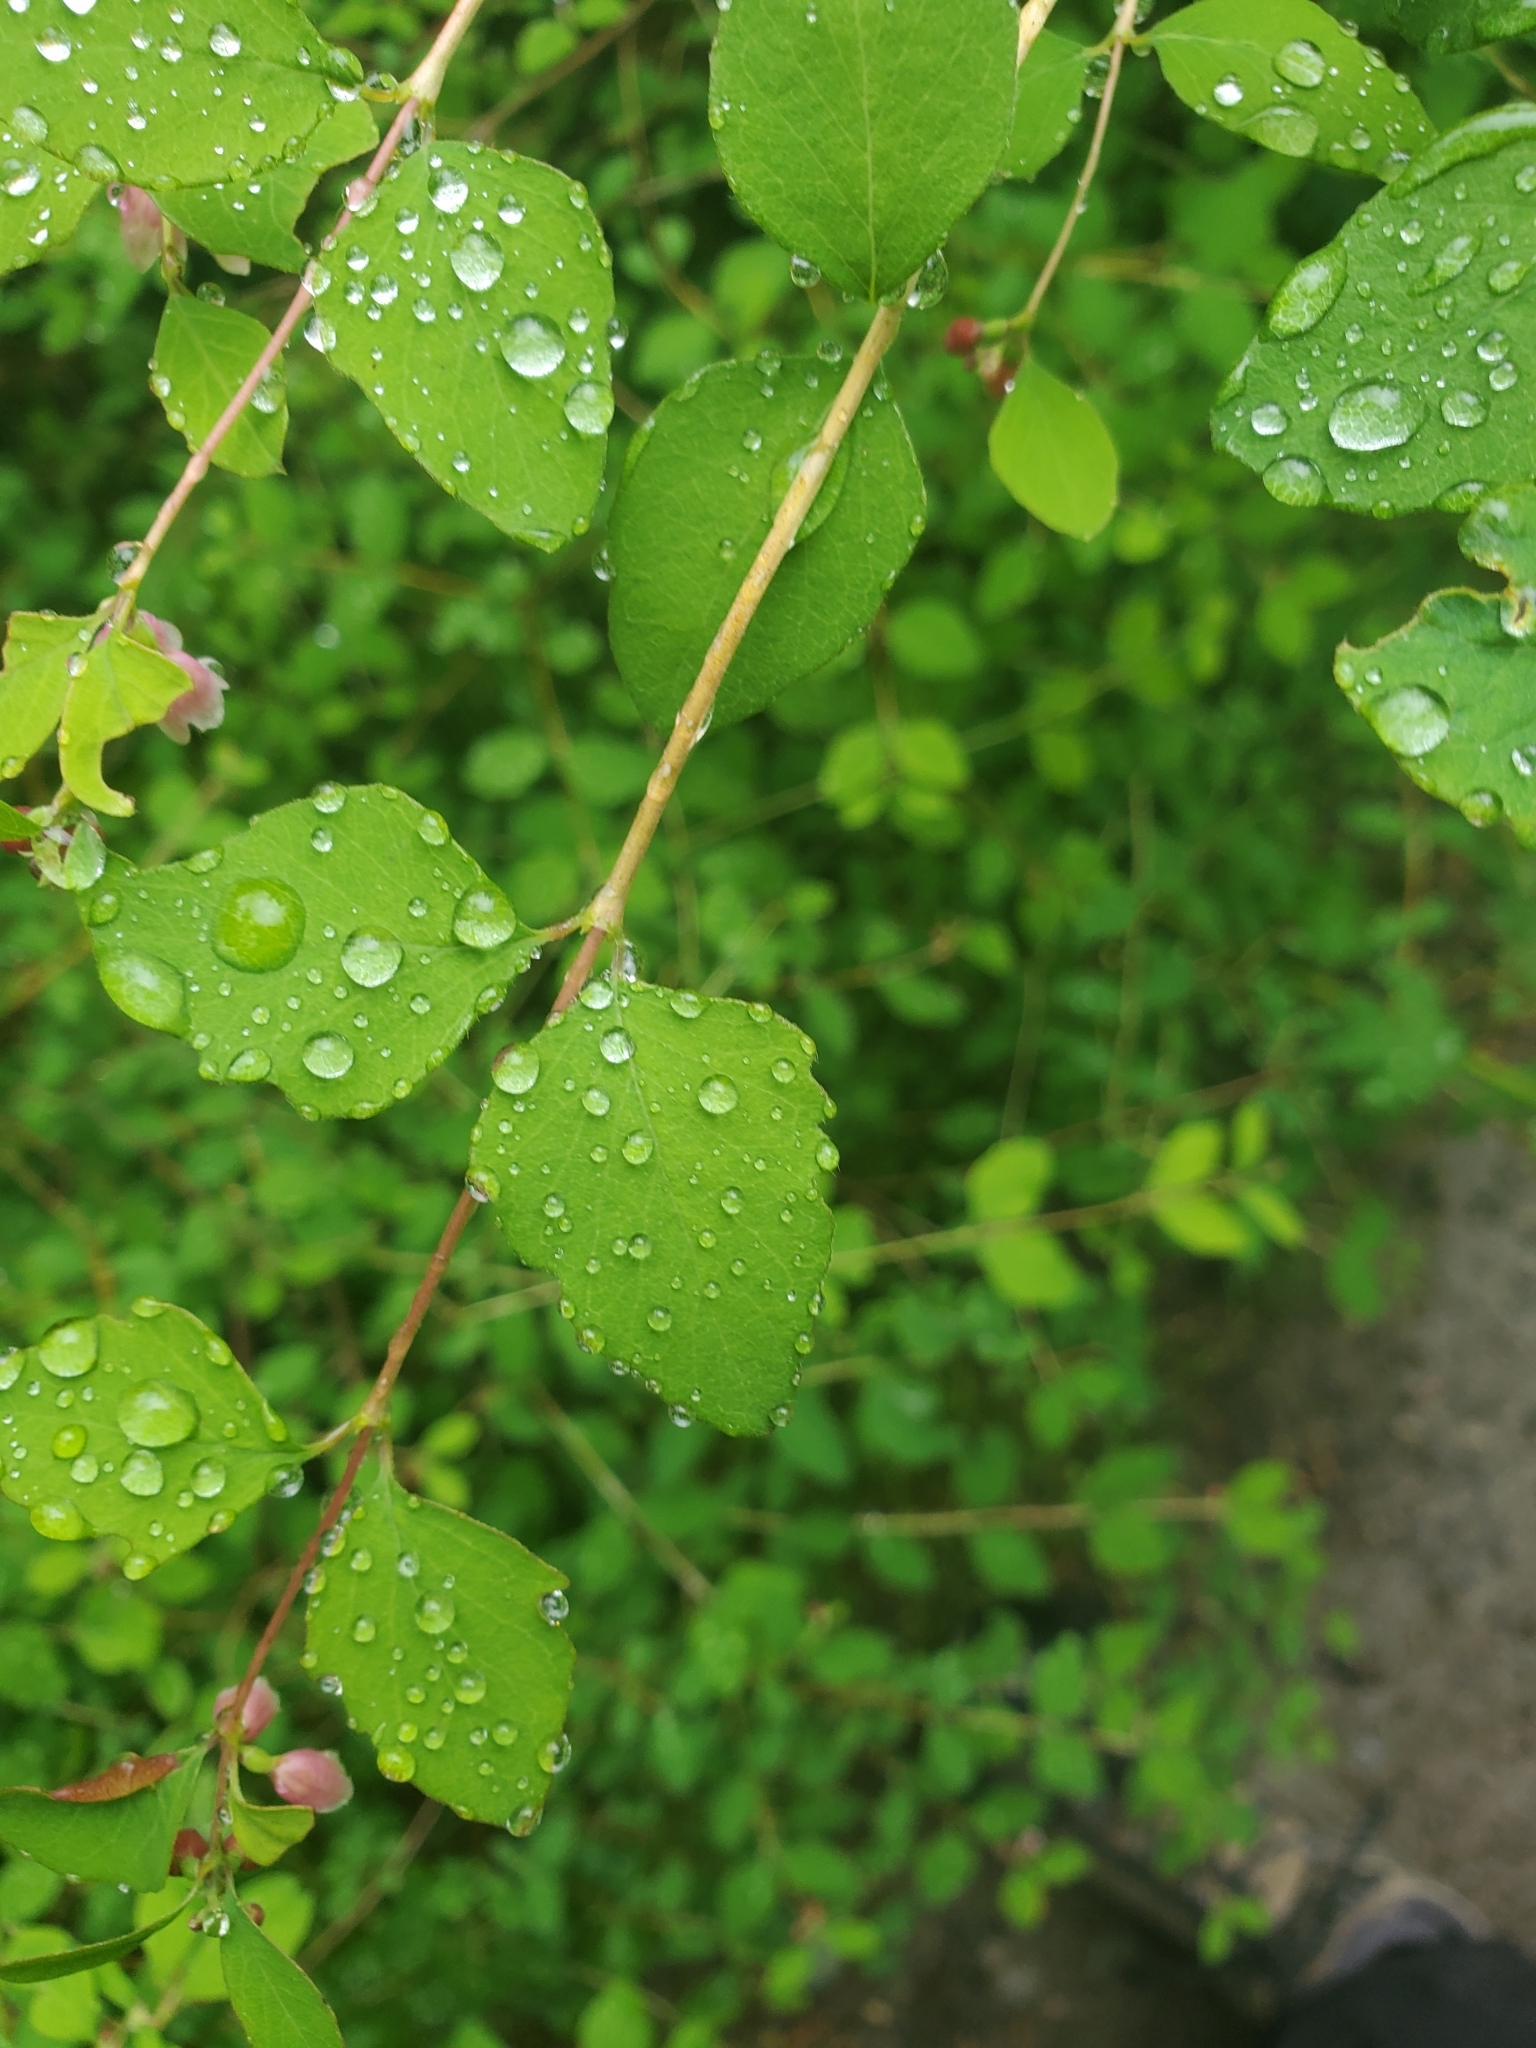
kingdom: Plantae
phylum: Tracheophyta
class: Magnoliopsida
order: Dipsacales
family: Caprifoliaceae
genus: Symphoricarpos
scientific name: Symphoricarpos albus
